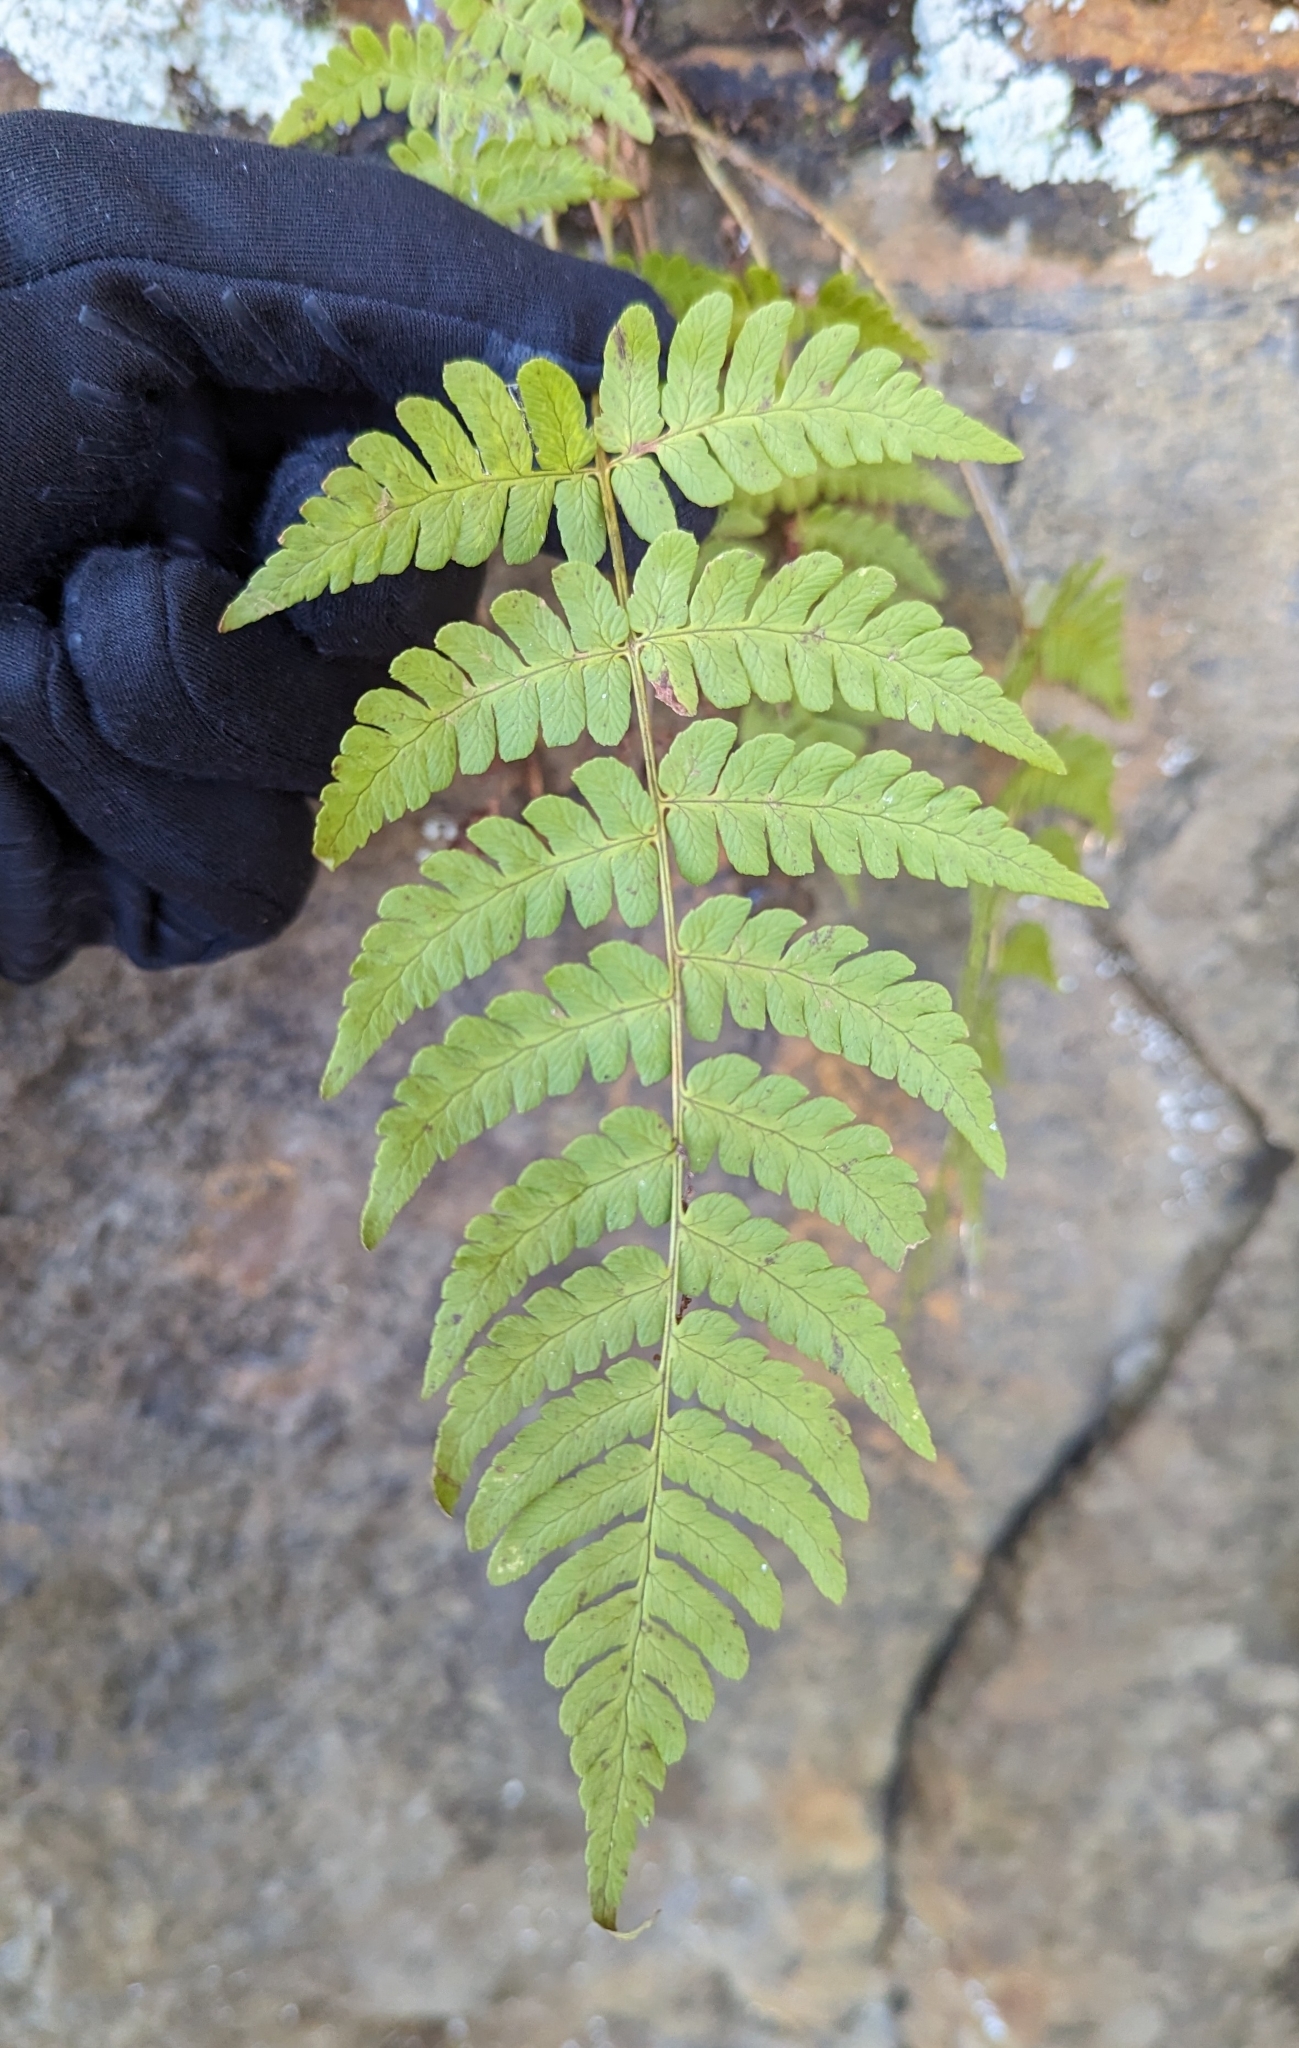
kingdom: Plantae
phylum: Tracheophyta
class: Polypodiopsida
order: Polypodiales
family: Dryopteridaceae
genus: Dryopteris
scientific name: Dryopteris marginalis
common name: Marginal wood fern
